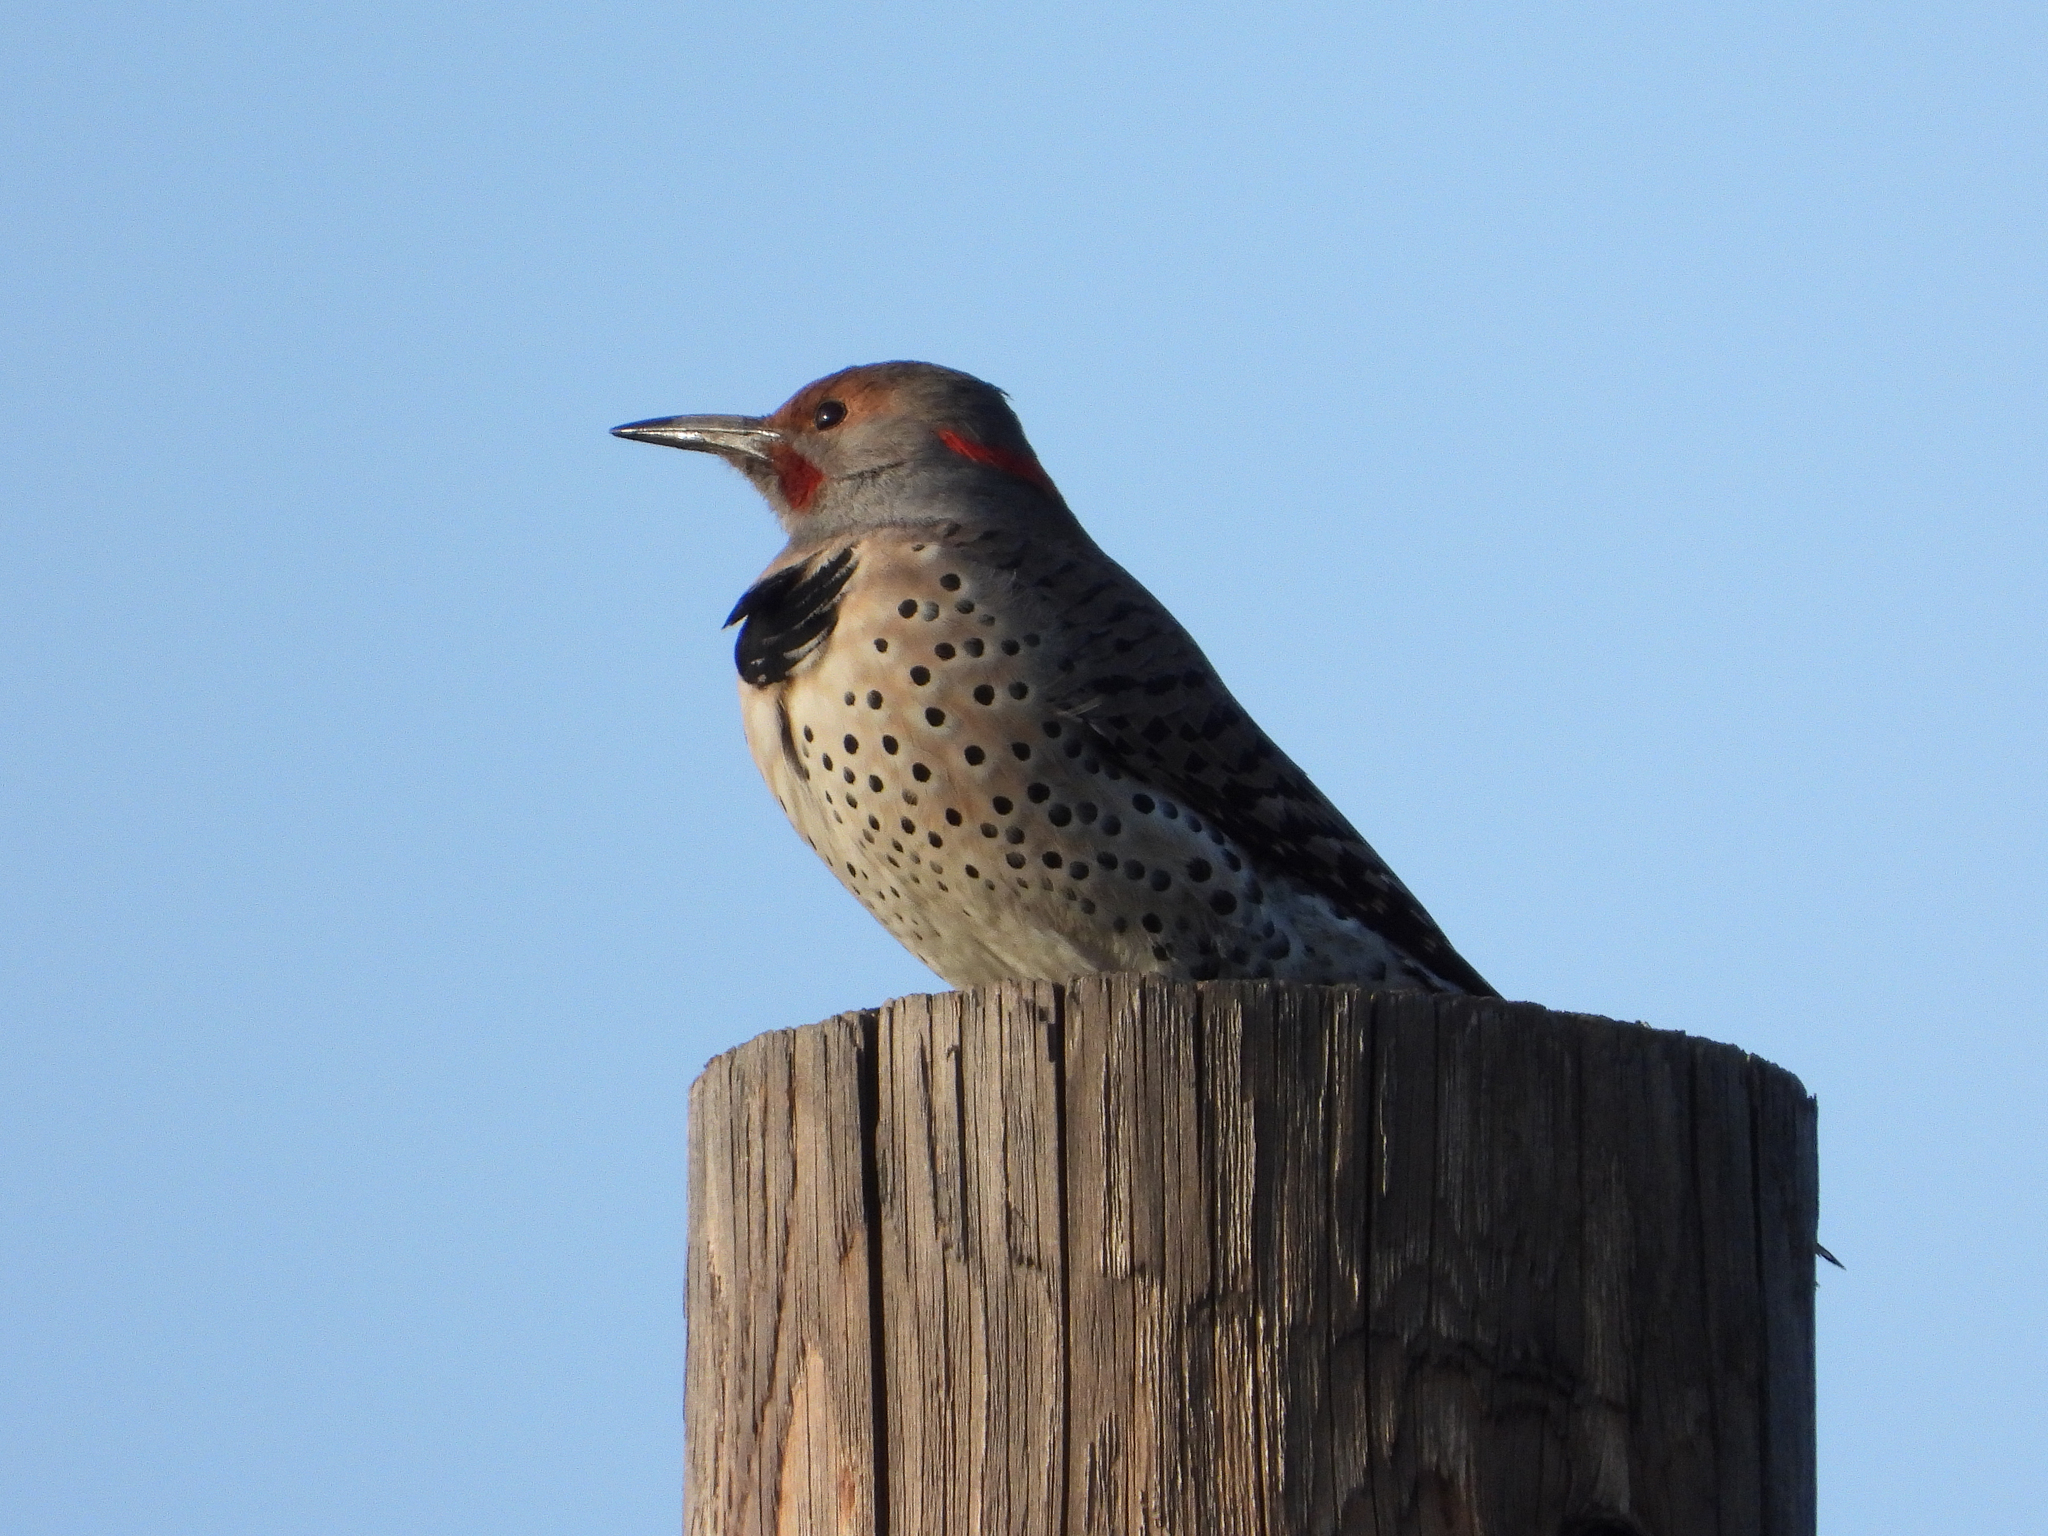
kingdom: Animalia
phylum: Chordata
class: Aves
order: Piciformes
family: Picidae
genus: Colaptes
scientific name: Colaptes
